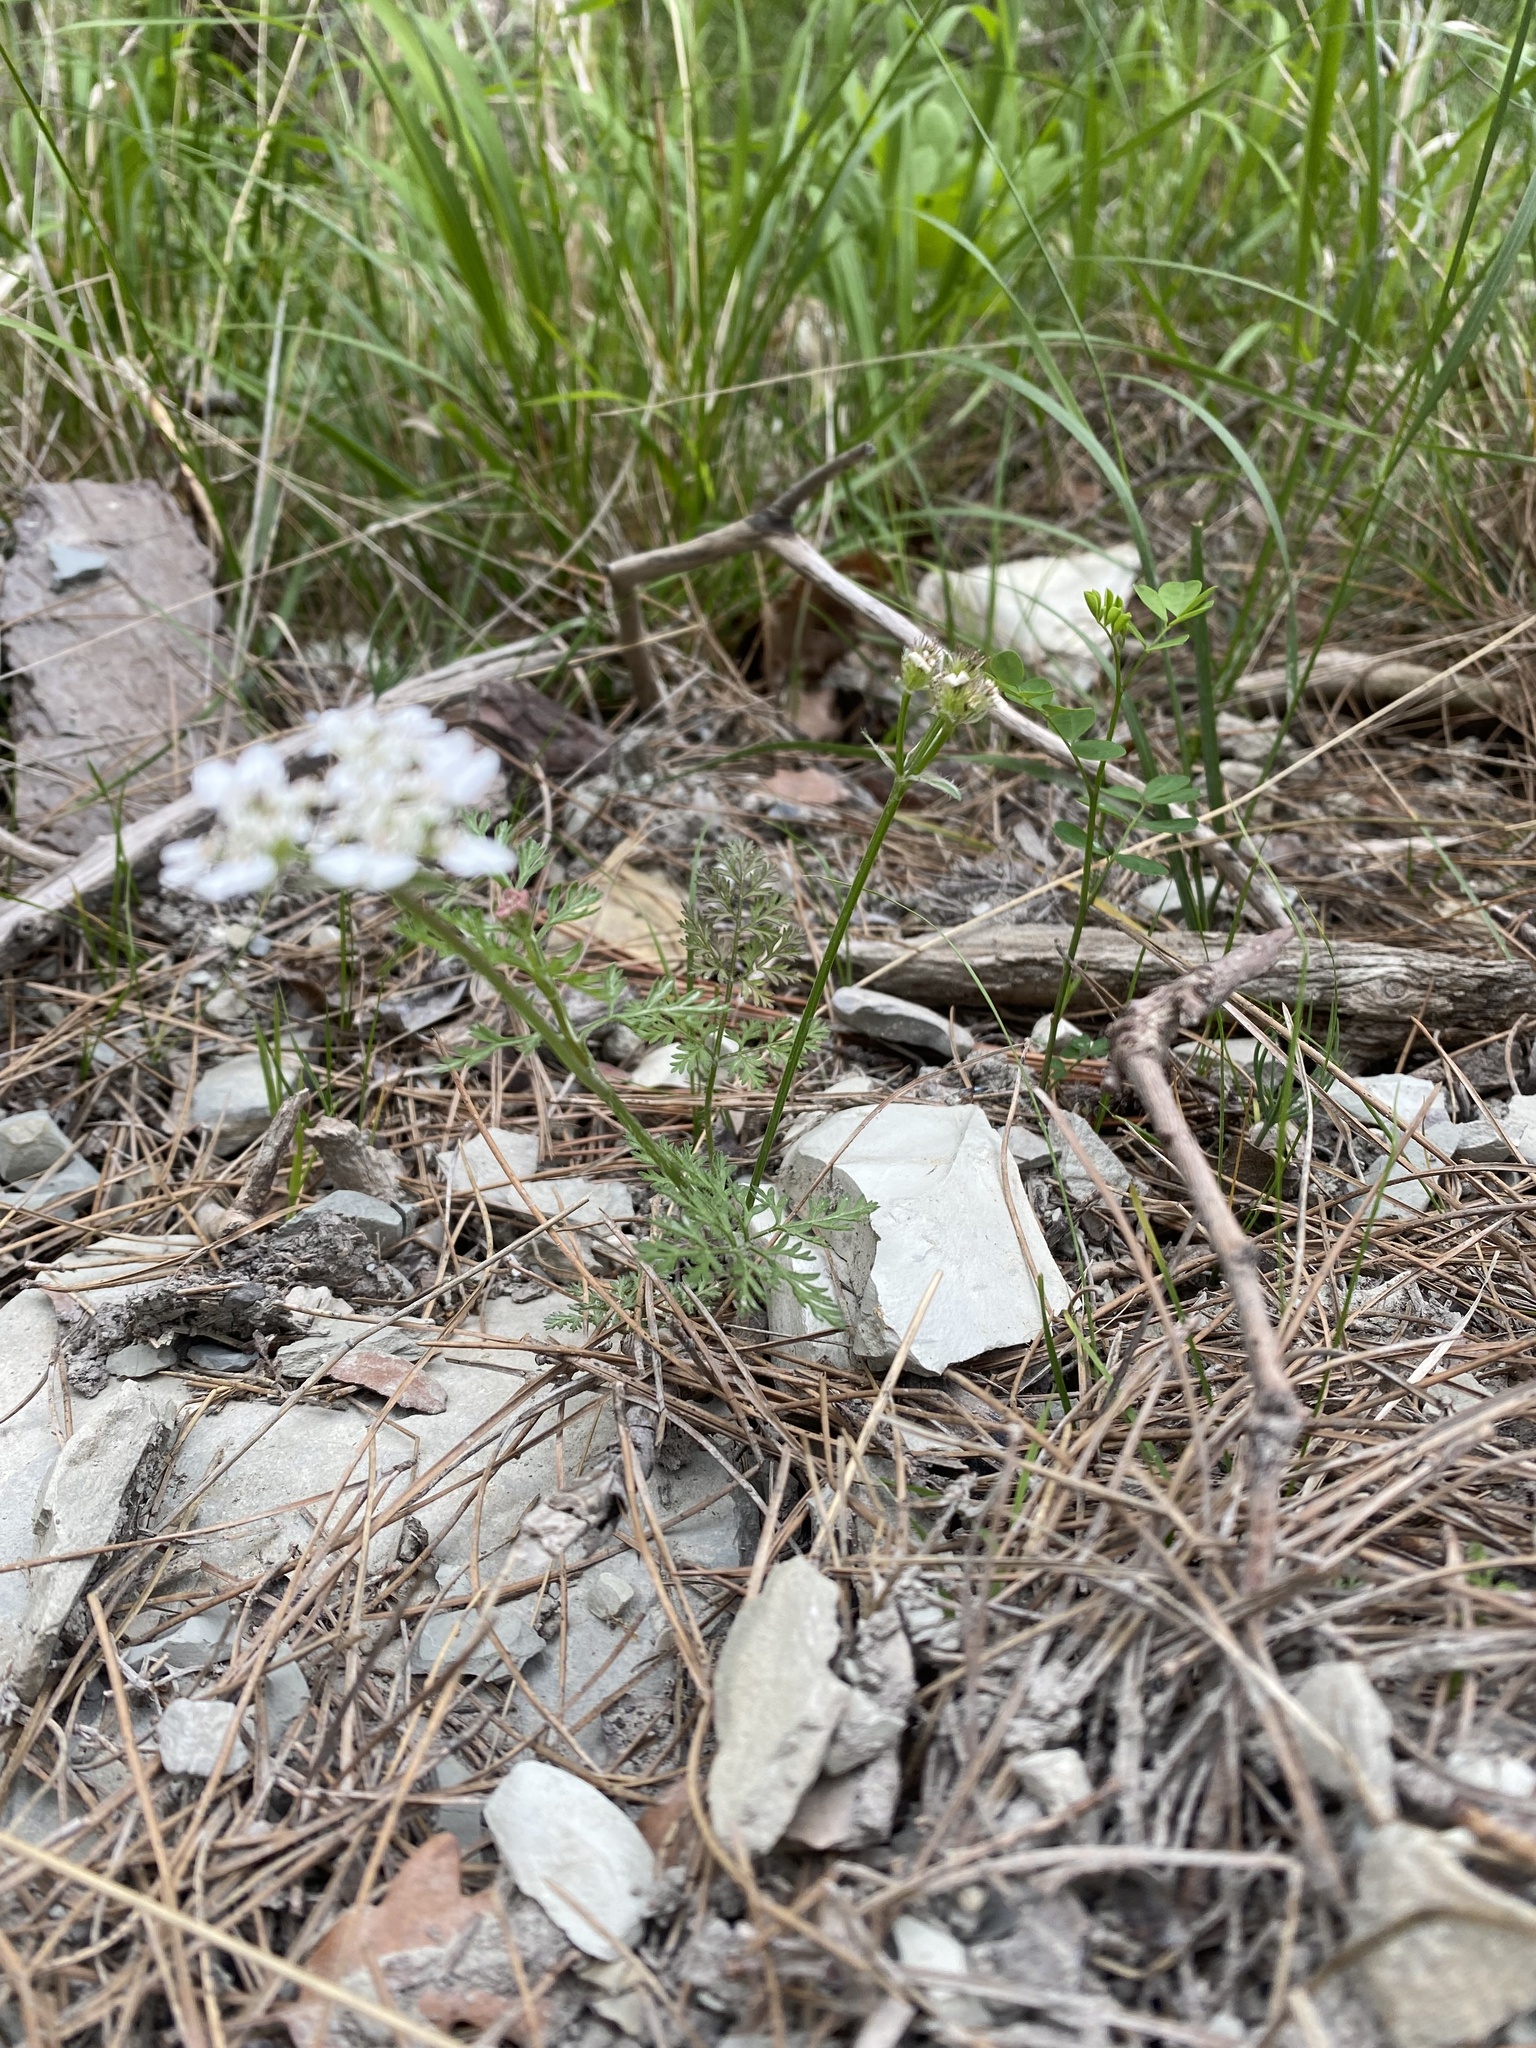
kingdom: Plantae
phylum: Tracheophyta
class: Magnoliopsida
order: Apiales
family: Apiaceae
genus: Orlaya
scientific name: Orlaya daucoides
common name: Flat-fruit orlaya
